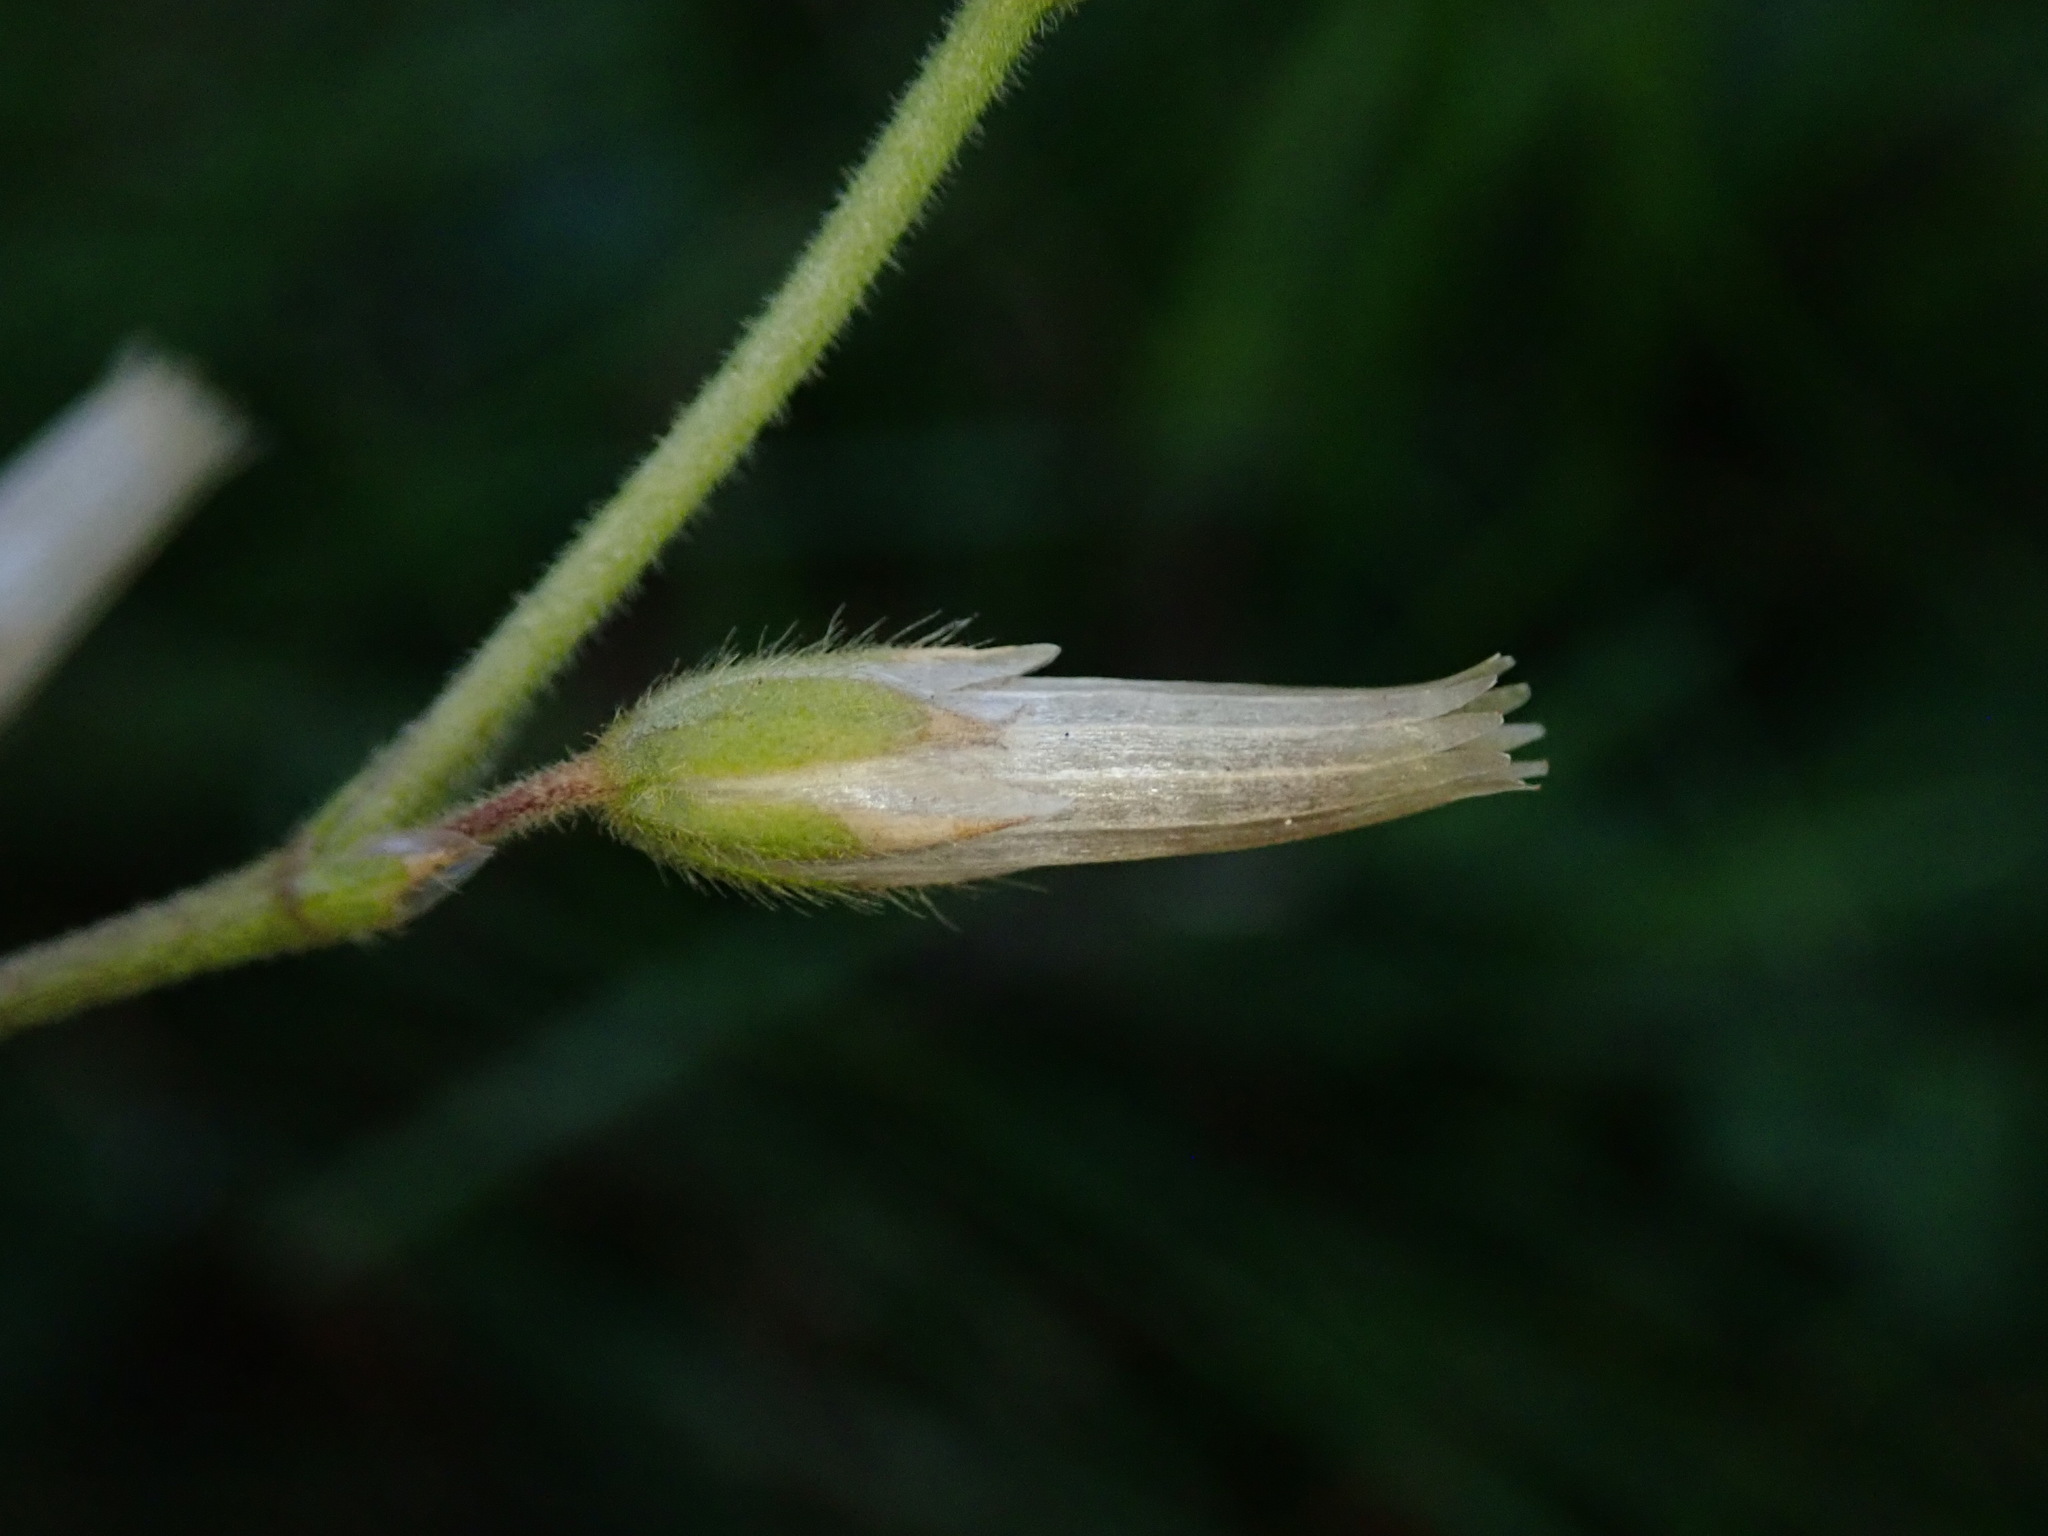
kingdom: Plantae
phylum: Tracheophyta
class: Magnoliopsida
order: Caryophyllales
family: Caryophyllaceae
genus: Cerastium
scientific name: Cerastium fontanum
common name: Common mouse-ear
